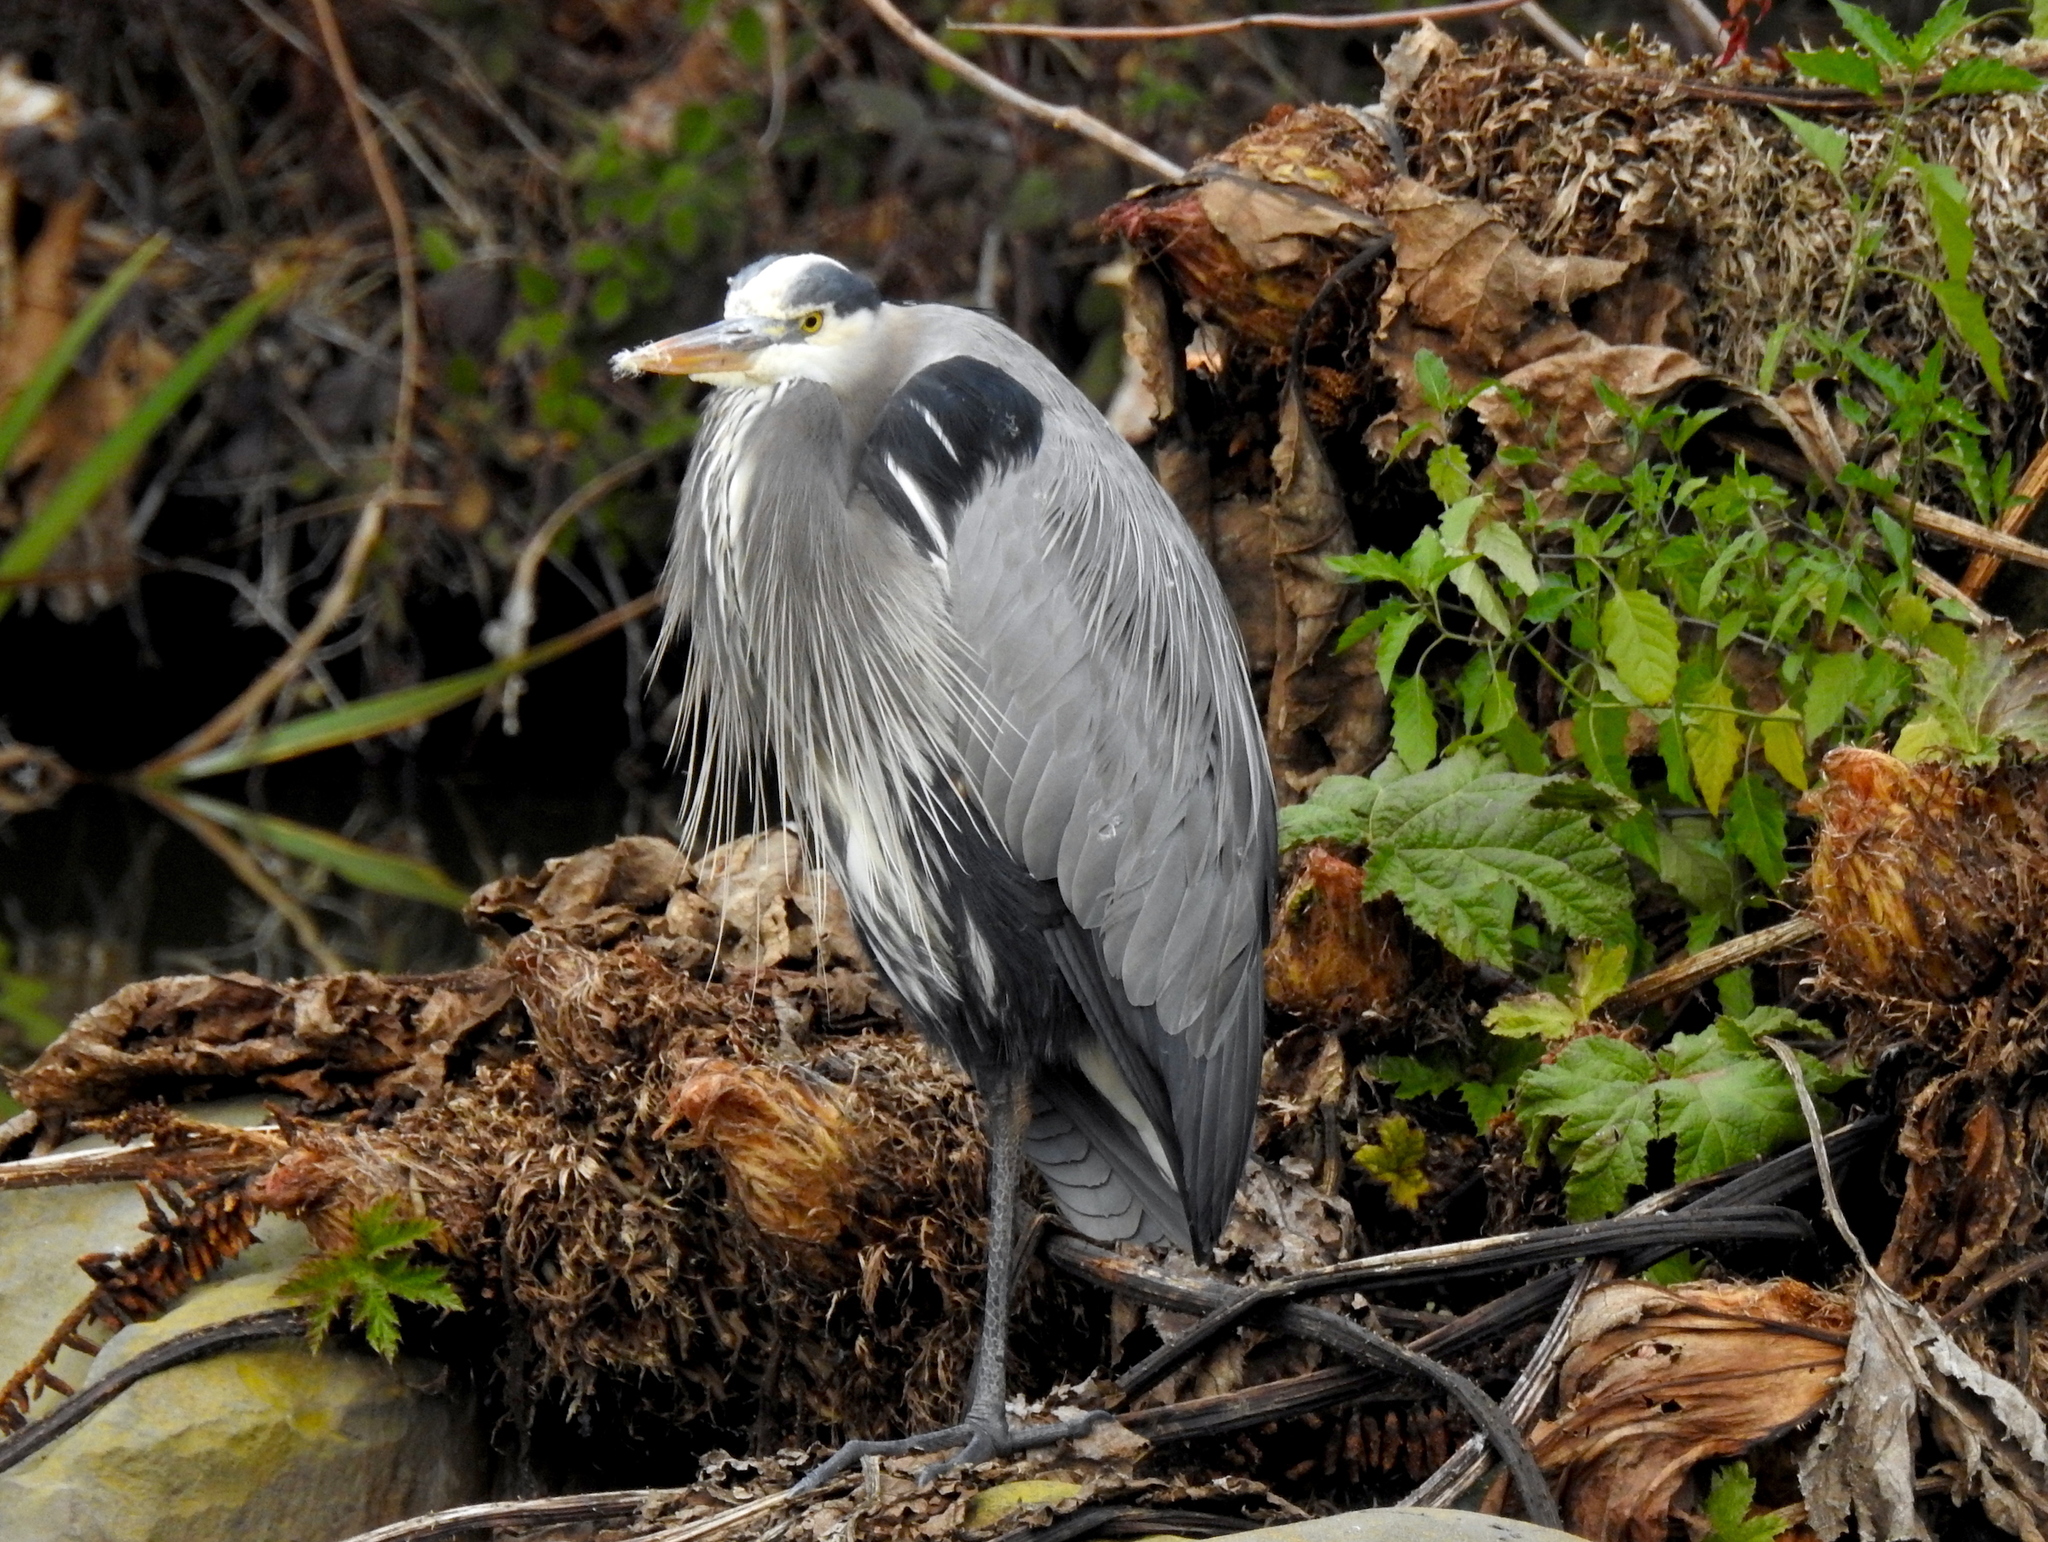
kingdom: Animalia
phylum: Chordata
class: Aves
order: Pelecaniformes
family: Ardeidae
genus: Ardea
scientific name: Ardea herodias
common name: Great blue heron
